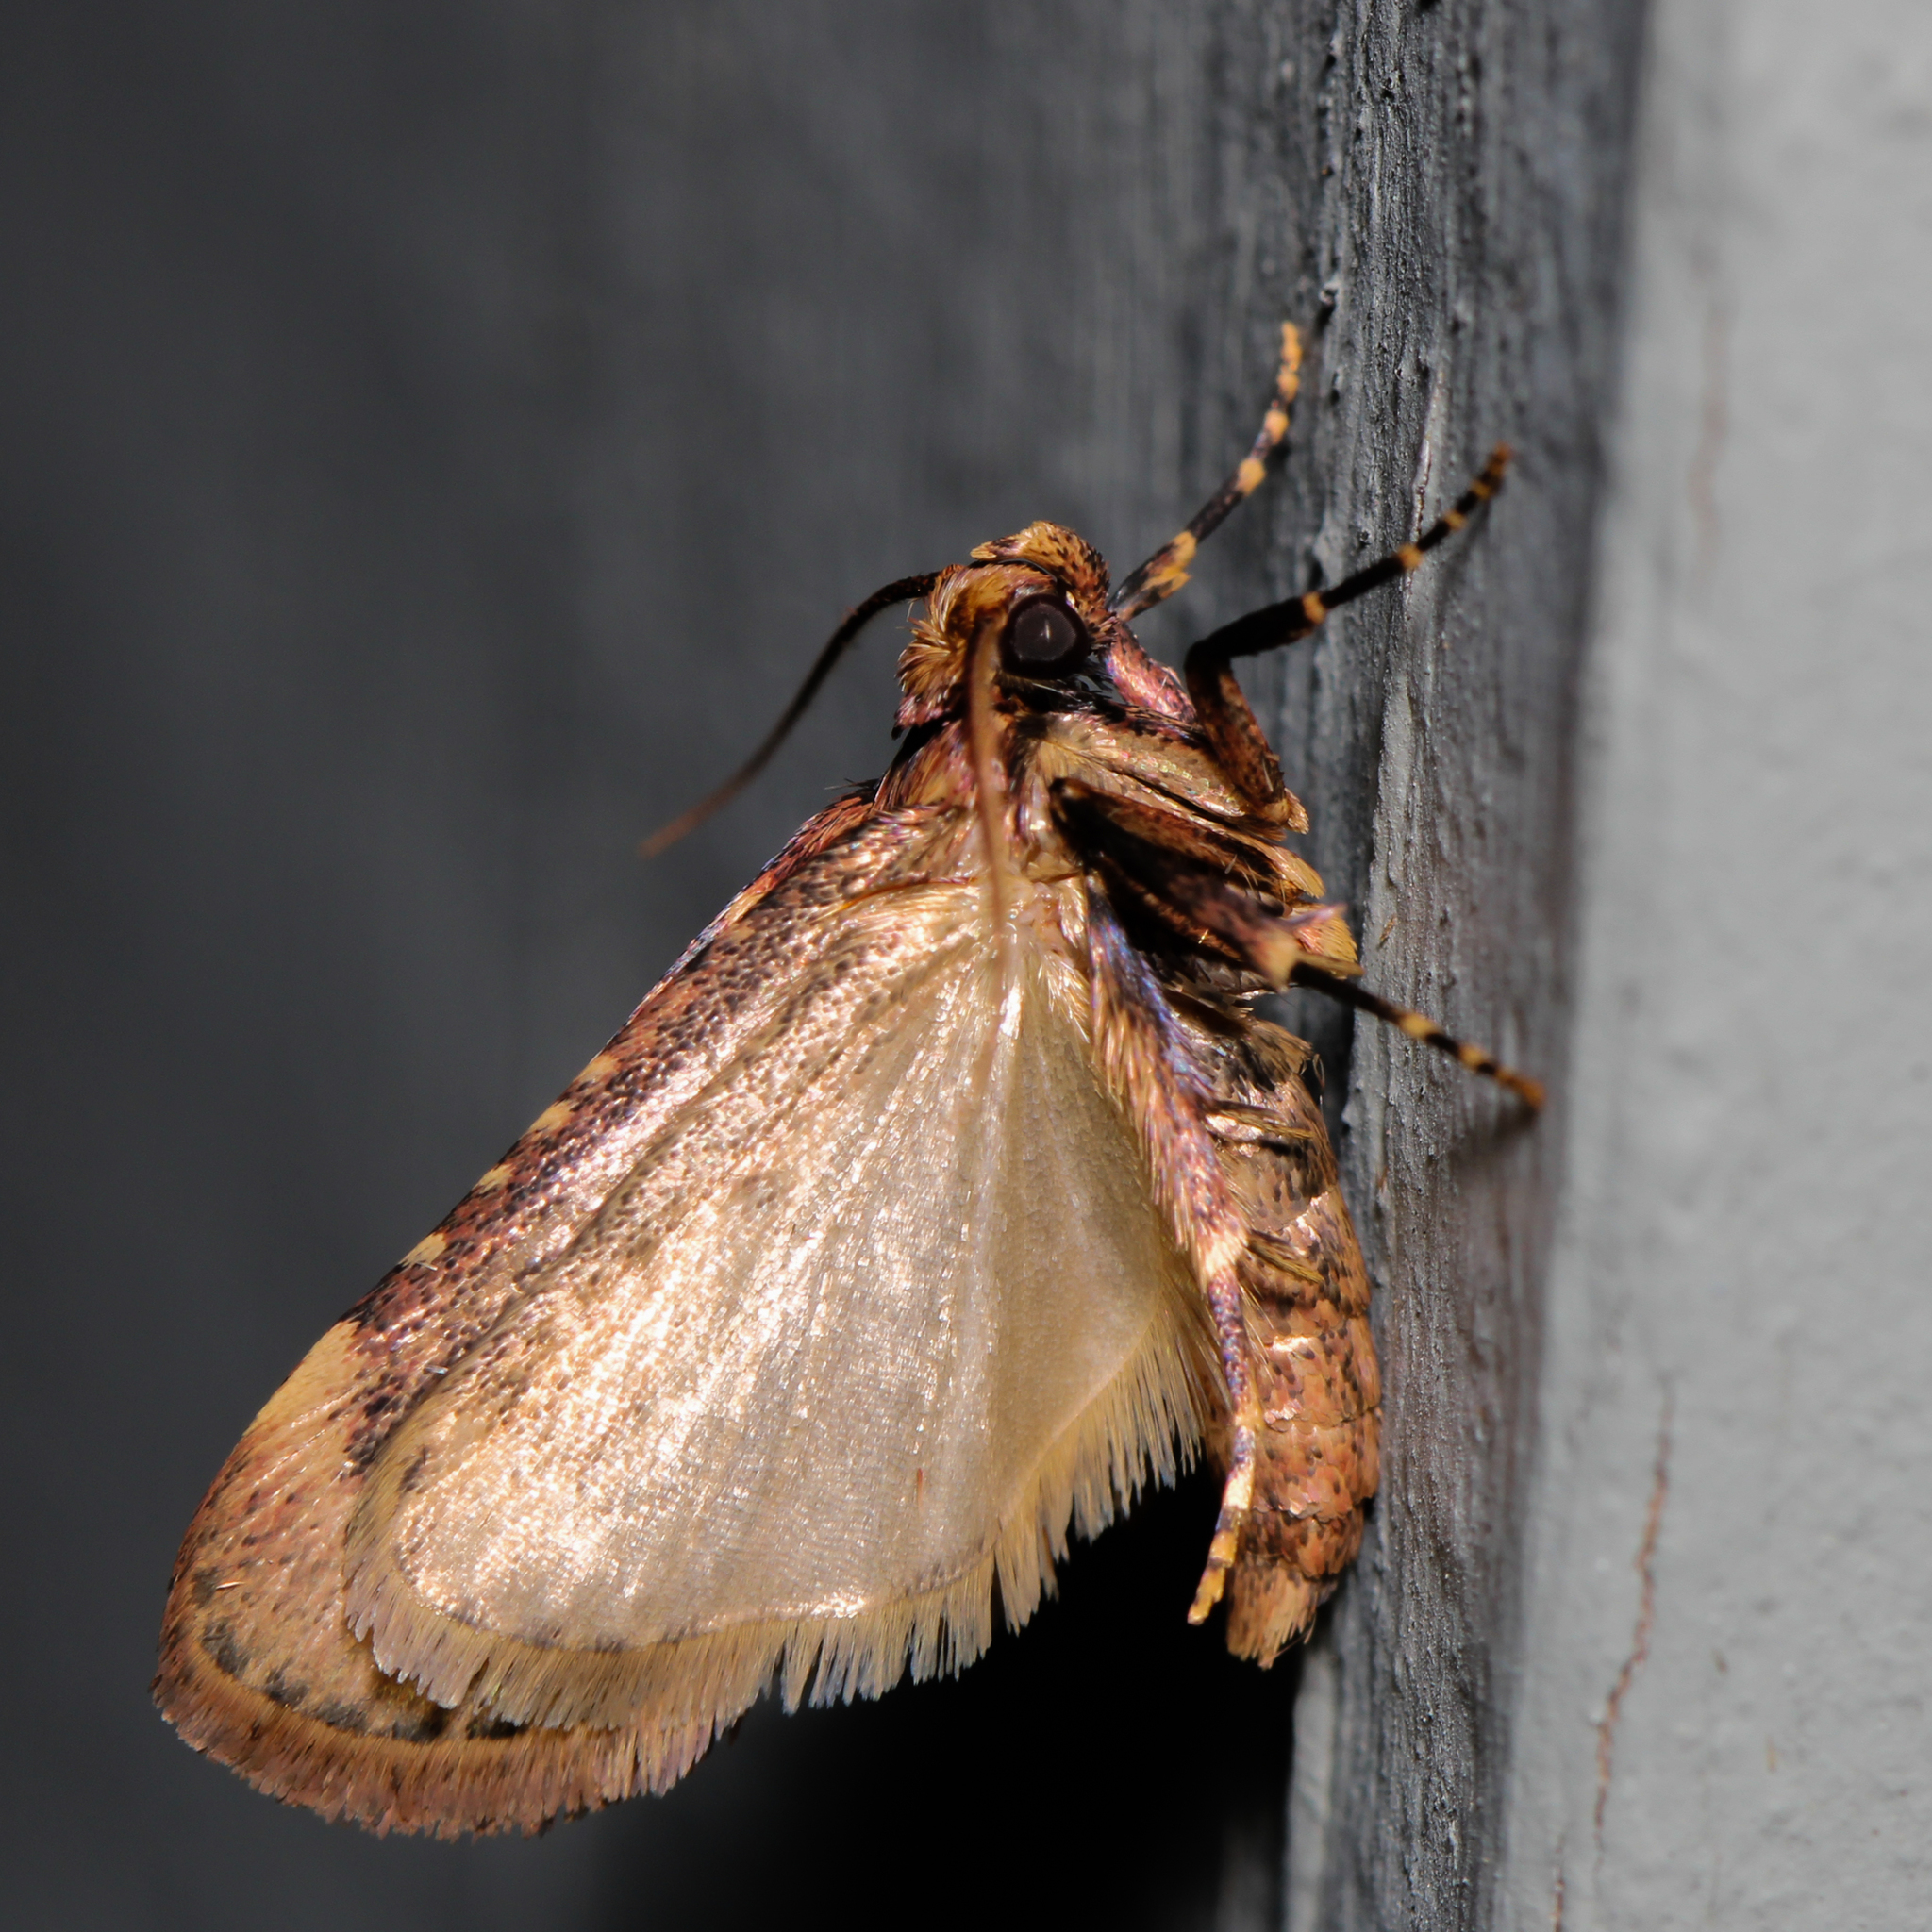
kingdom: Animalia
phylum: Arthropoda
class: Insecta
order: Lepidoptera
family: Pyralidae
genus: Aglossa
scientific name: Aglossa cuprina
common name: Grease moth
